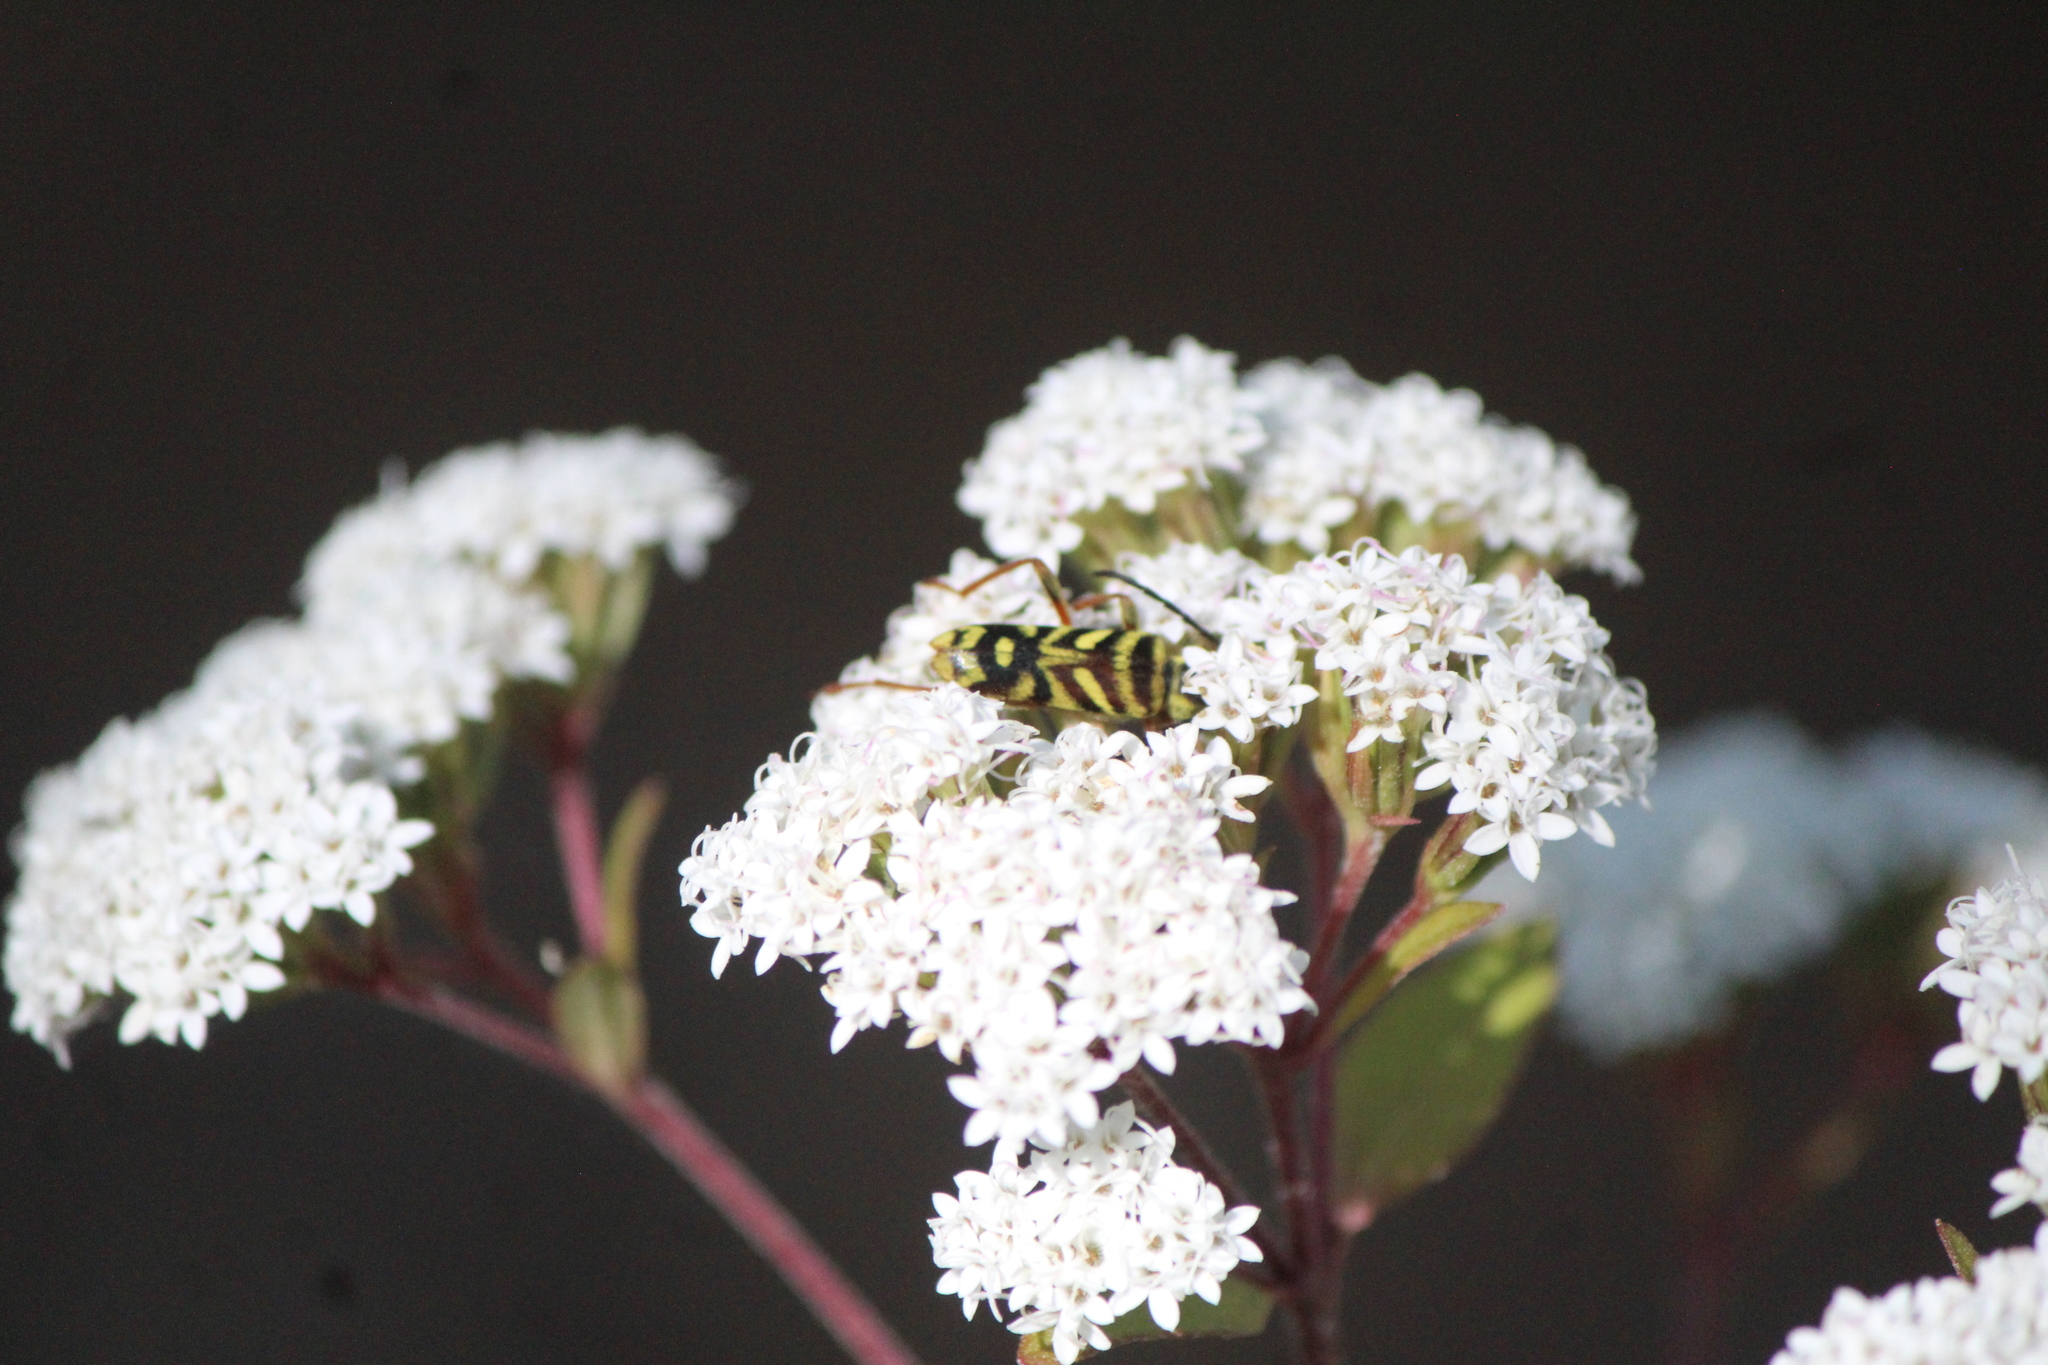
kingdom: Animalia
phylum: Arthropoda
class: Insecta
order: Coleoptera
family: Cerambycidae
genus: Ochraethes
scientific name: Ochraethes obliquus
